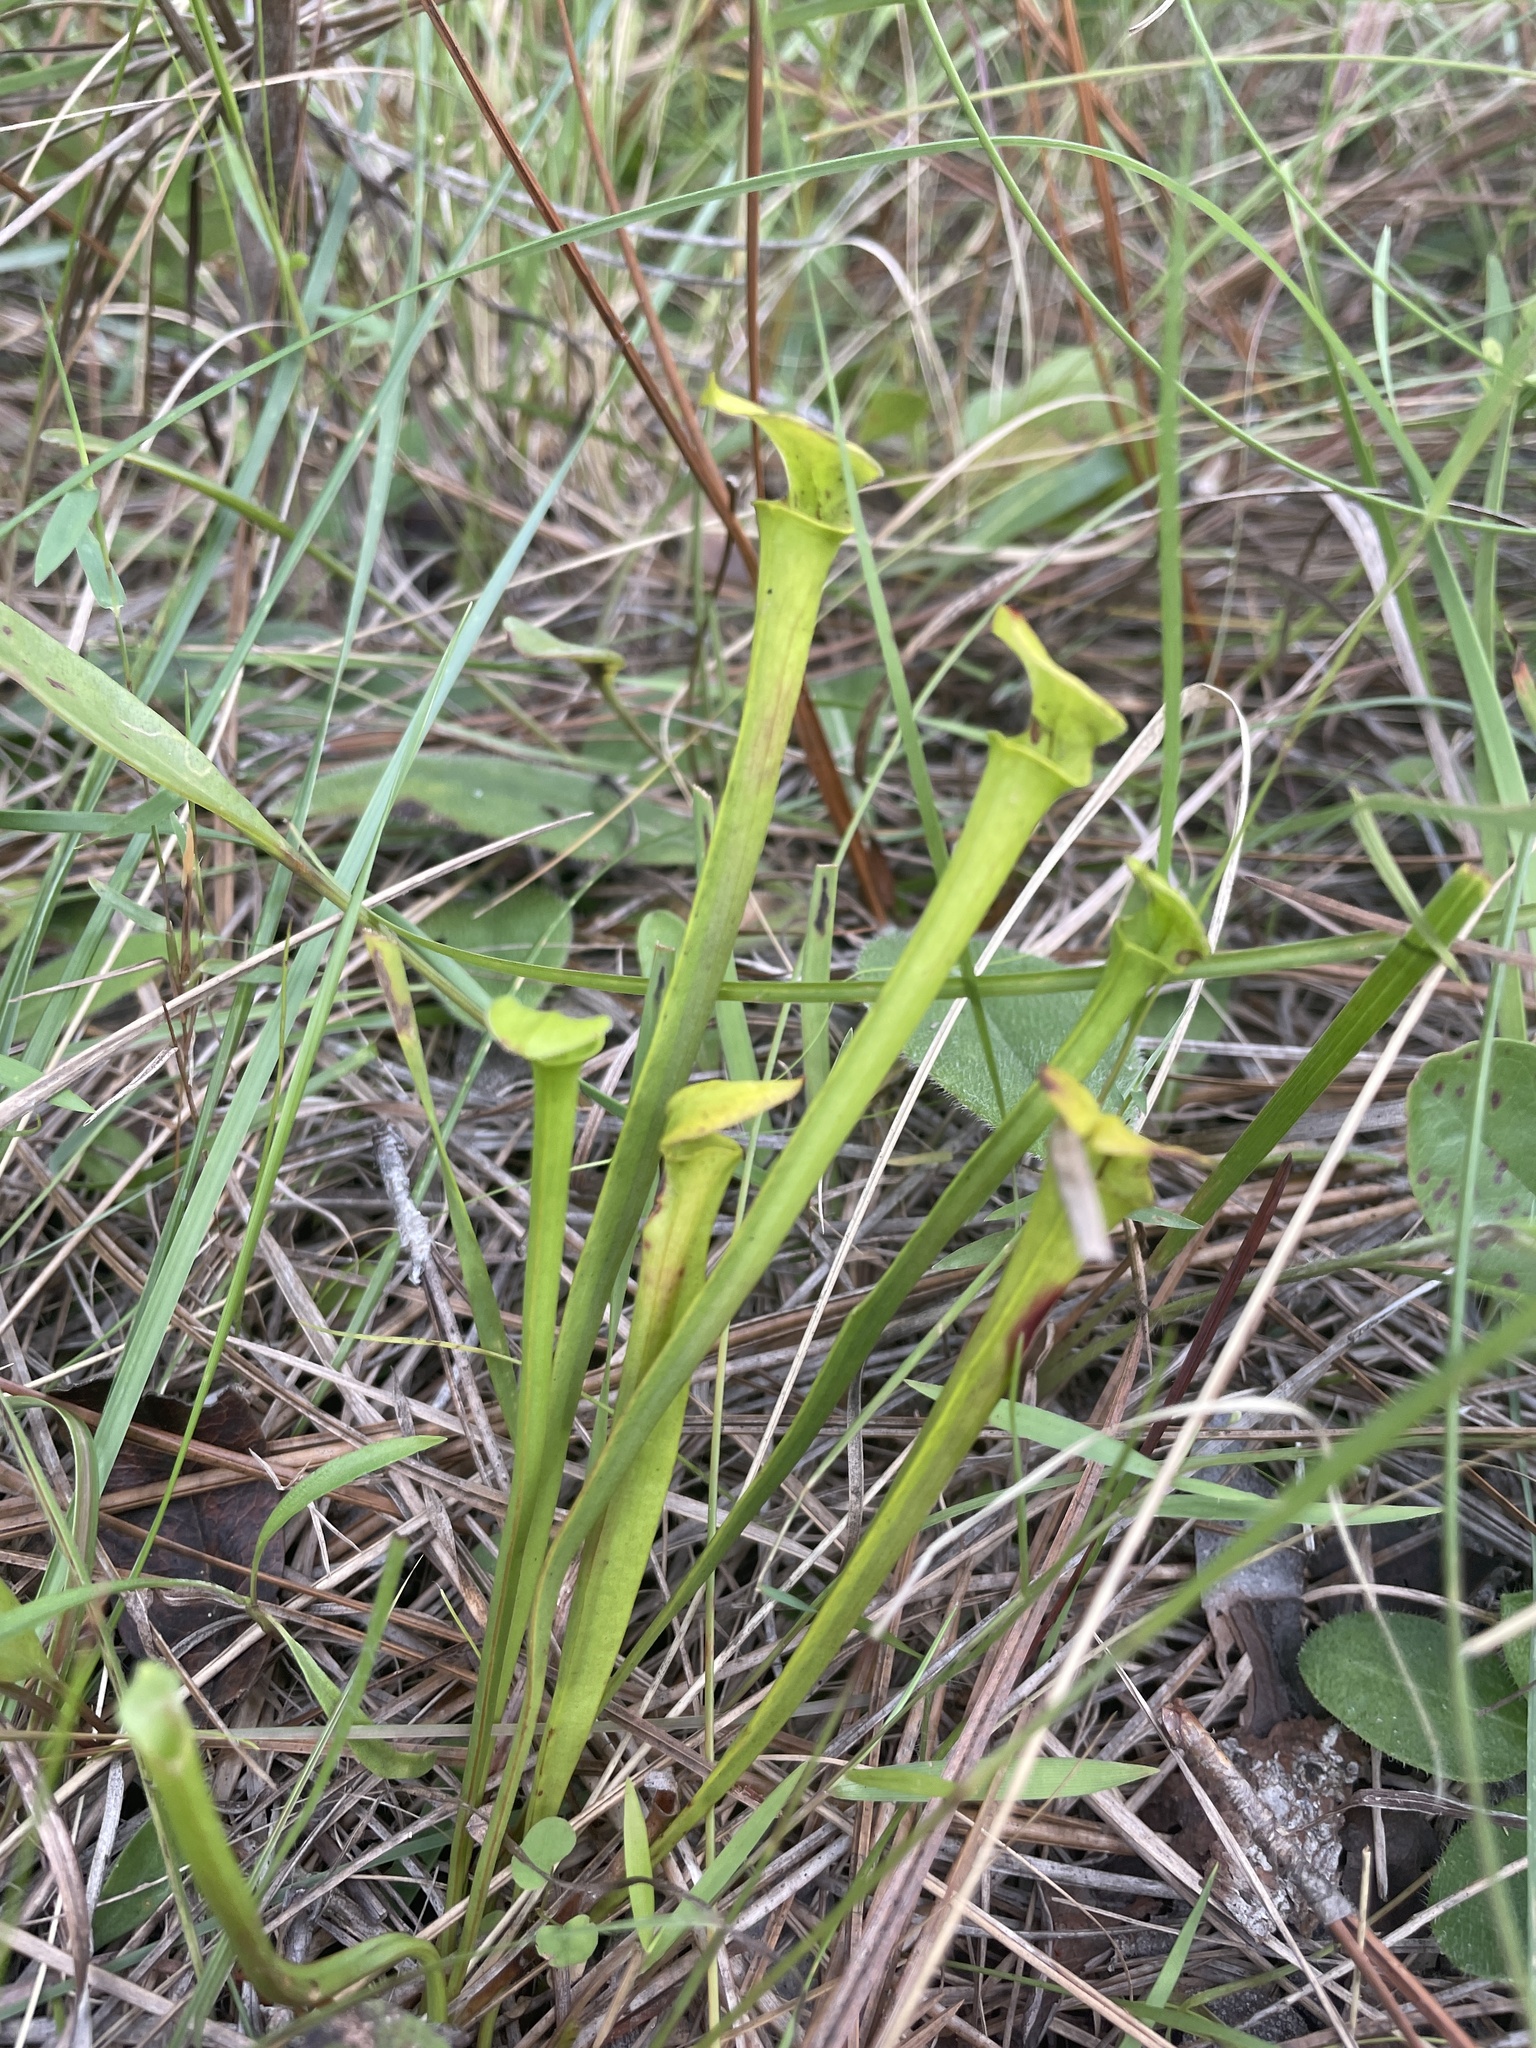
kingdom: Plantae
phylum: Tracheophyta
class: Magnoliopsida
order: Ericales
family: Sarraceniaceae
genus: Sarracenia
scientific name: Sarracenia flava
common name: Trumpets
